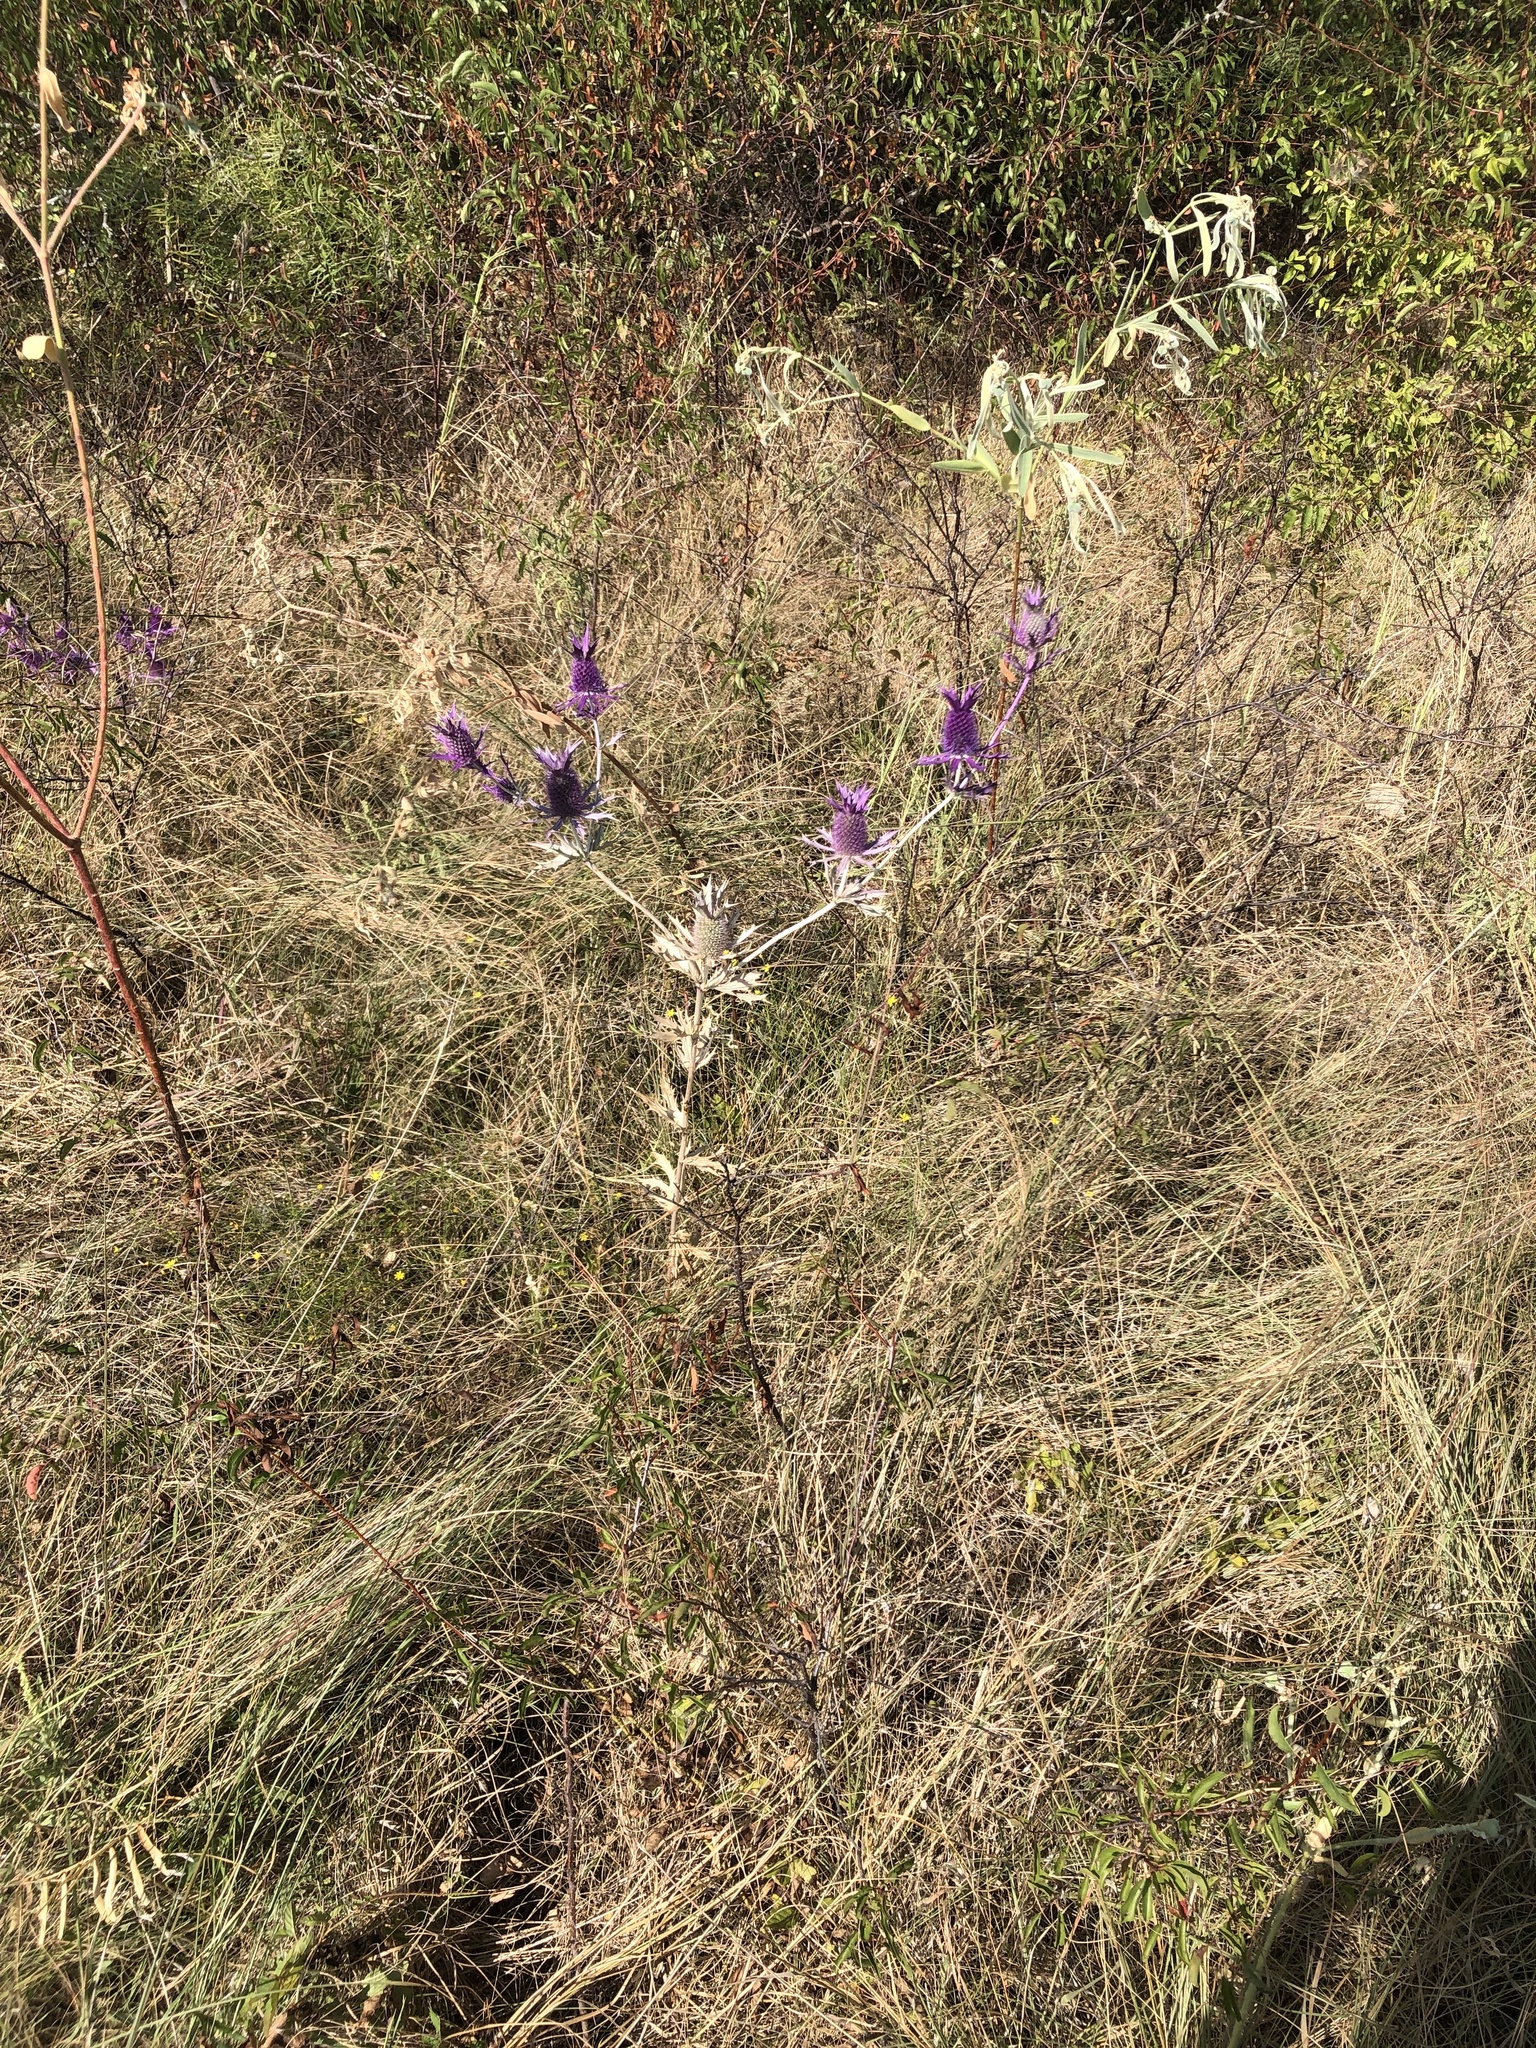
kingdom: Plantae
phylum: Tracheophyta
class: Magnoliopsida
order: Apiales
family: Apiaceae
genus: Eryngium
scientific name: Eryngium leavenworthii
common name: Leavenworth's eryngo
